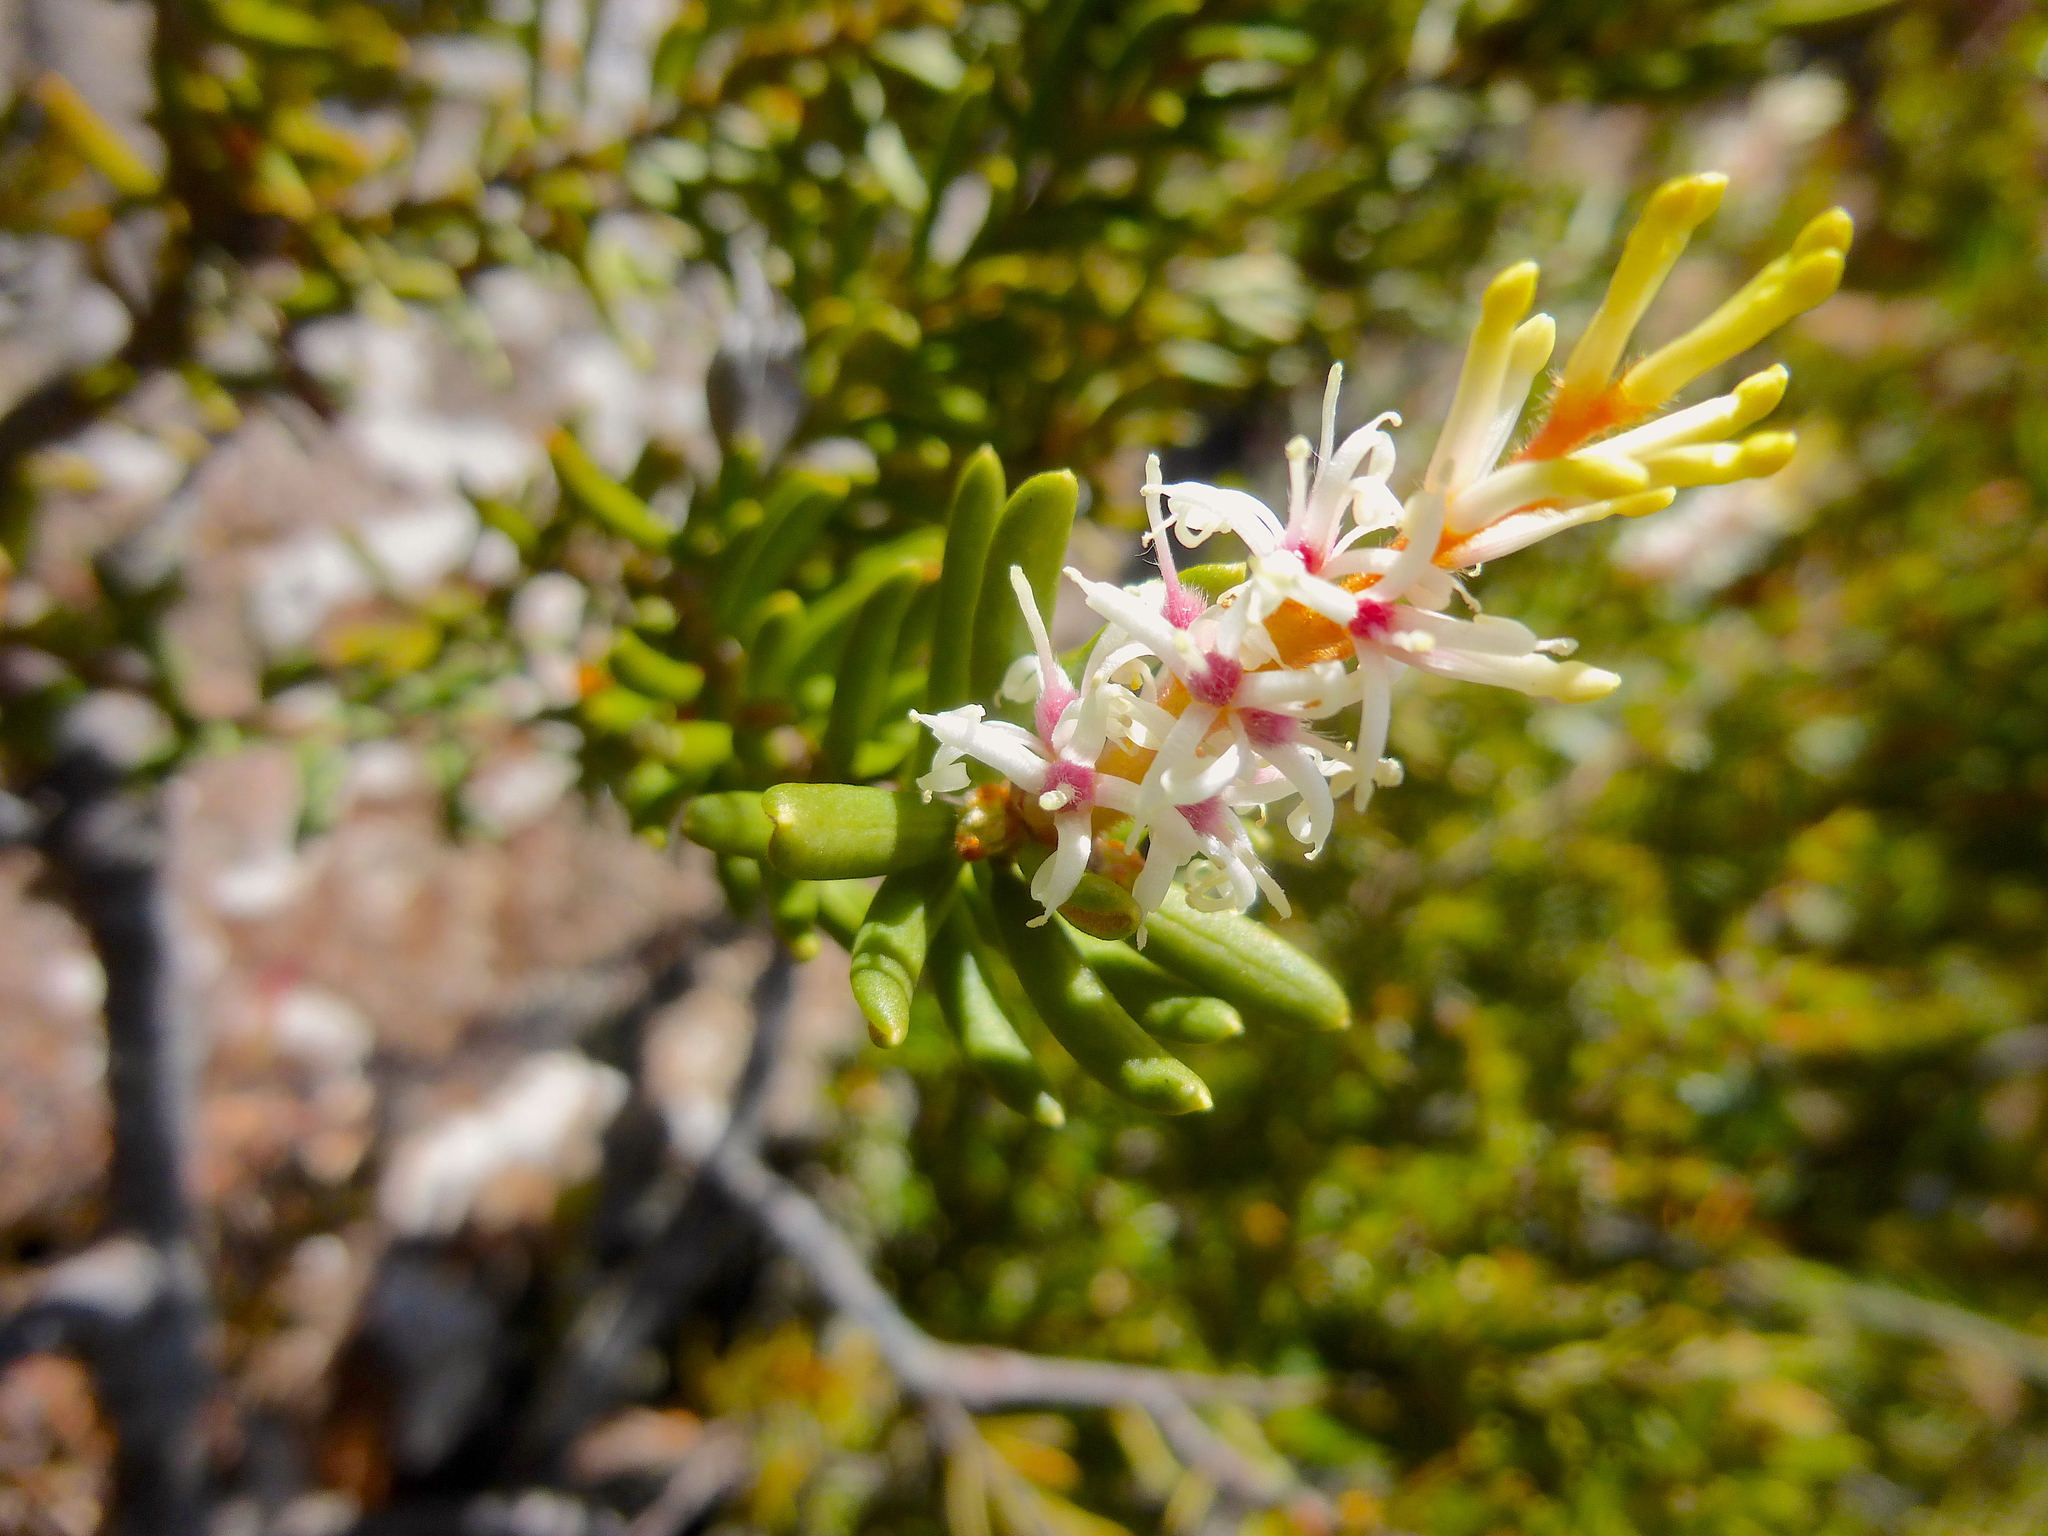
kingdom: Plantae
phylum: Tracheophyta
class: Magnoliopsida
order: Proteales
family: Proteaceae
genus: Orites
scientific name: Orites revolutus
